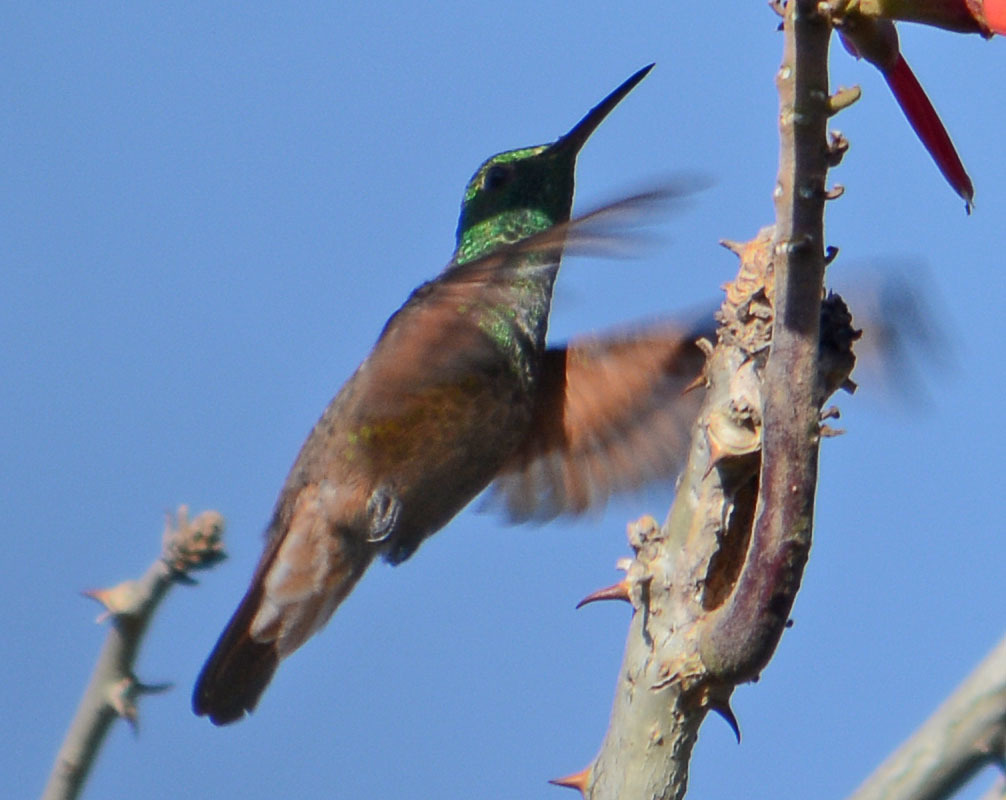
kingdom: Animalia
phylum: Chordata
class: Aves
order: Apodiformes
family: Trochilidae
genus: Saucerottia
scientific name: Saucerottia beryllina
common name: Berylline hummingbird
